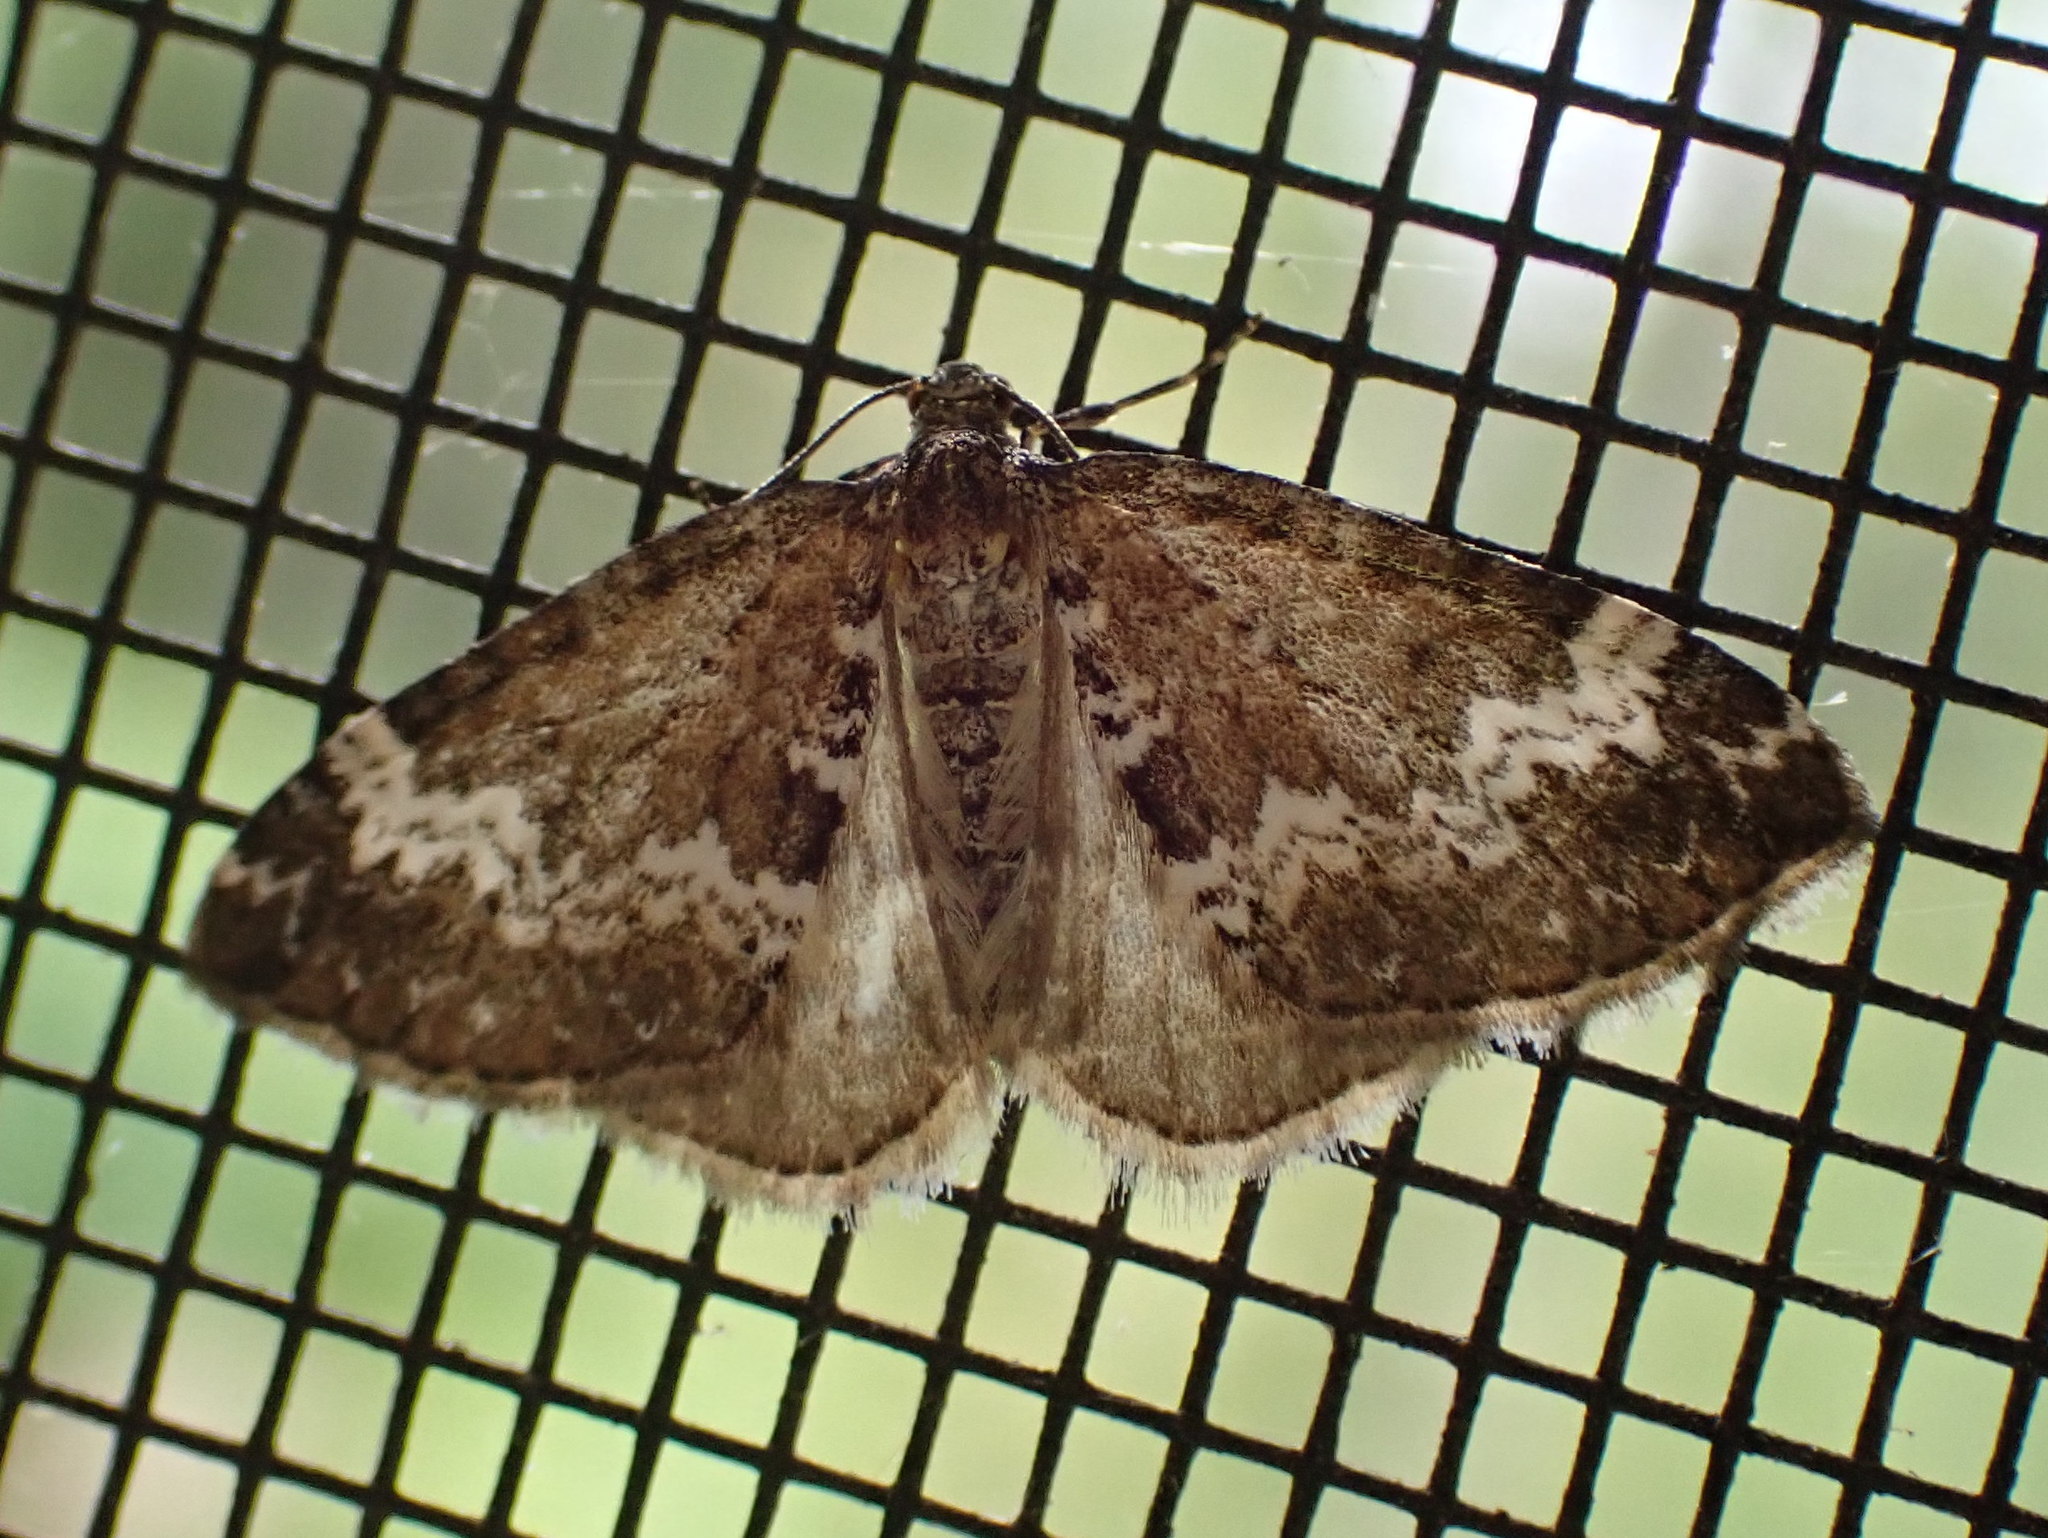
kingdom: Animalia
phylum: Arthropoda
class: Insecta
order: Lepidoptera
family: Geometridae
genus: Perizoma
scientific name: Perizoma alchemillata
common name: Small rivulet
